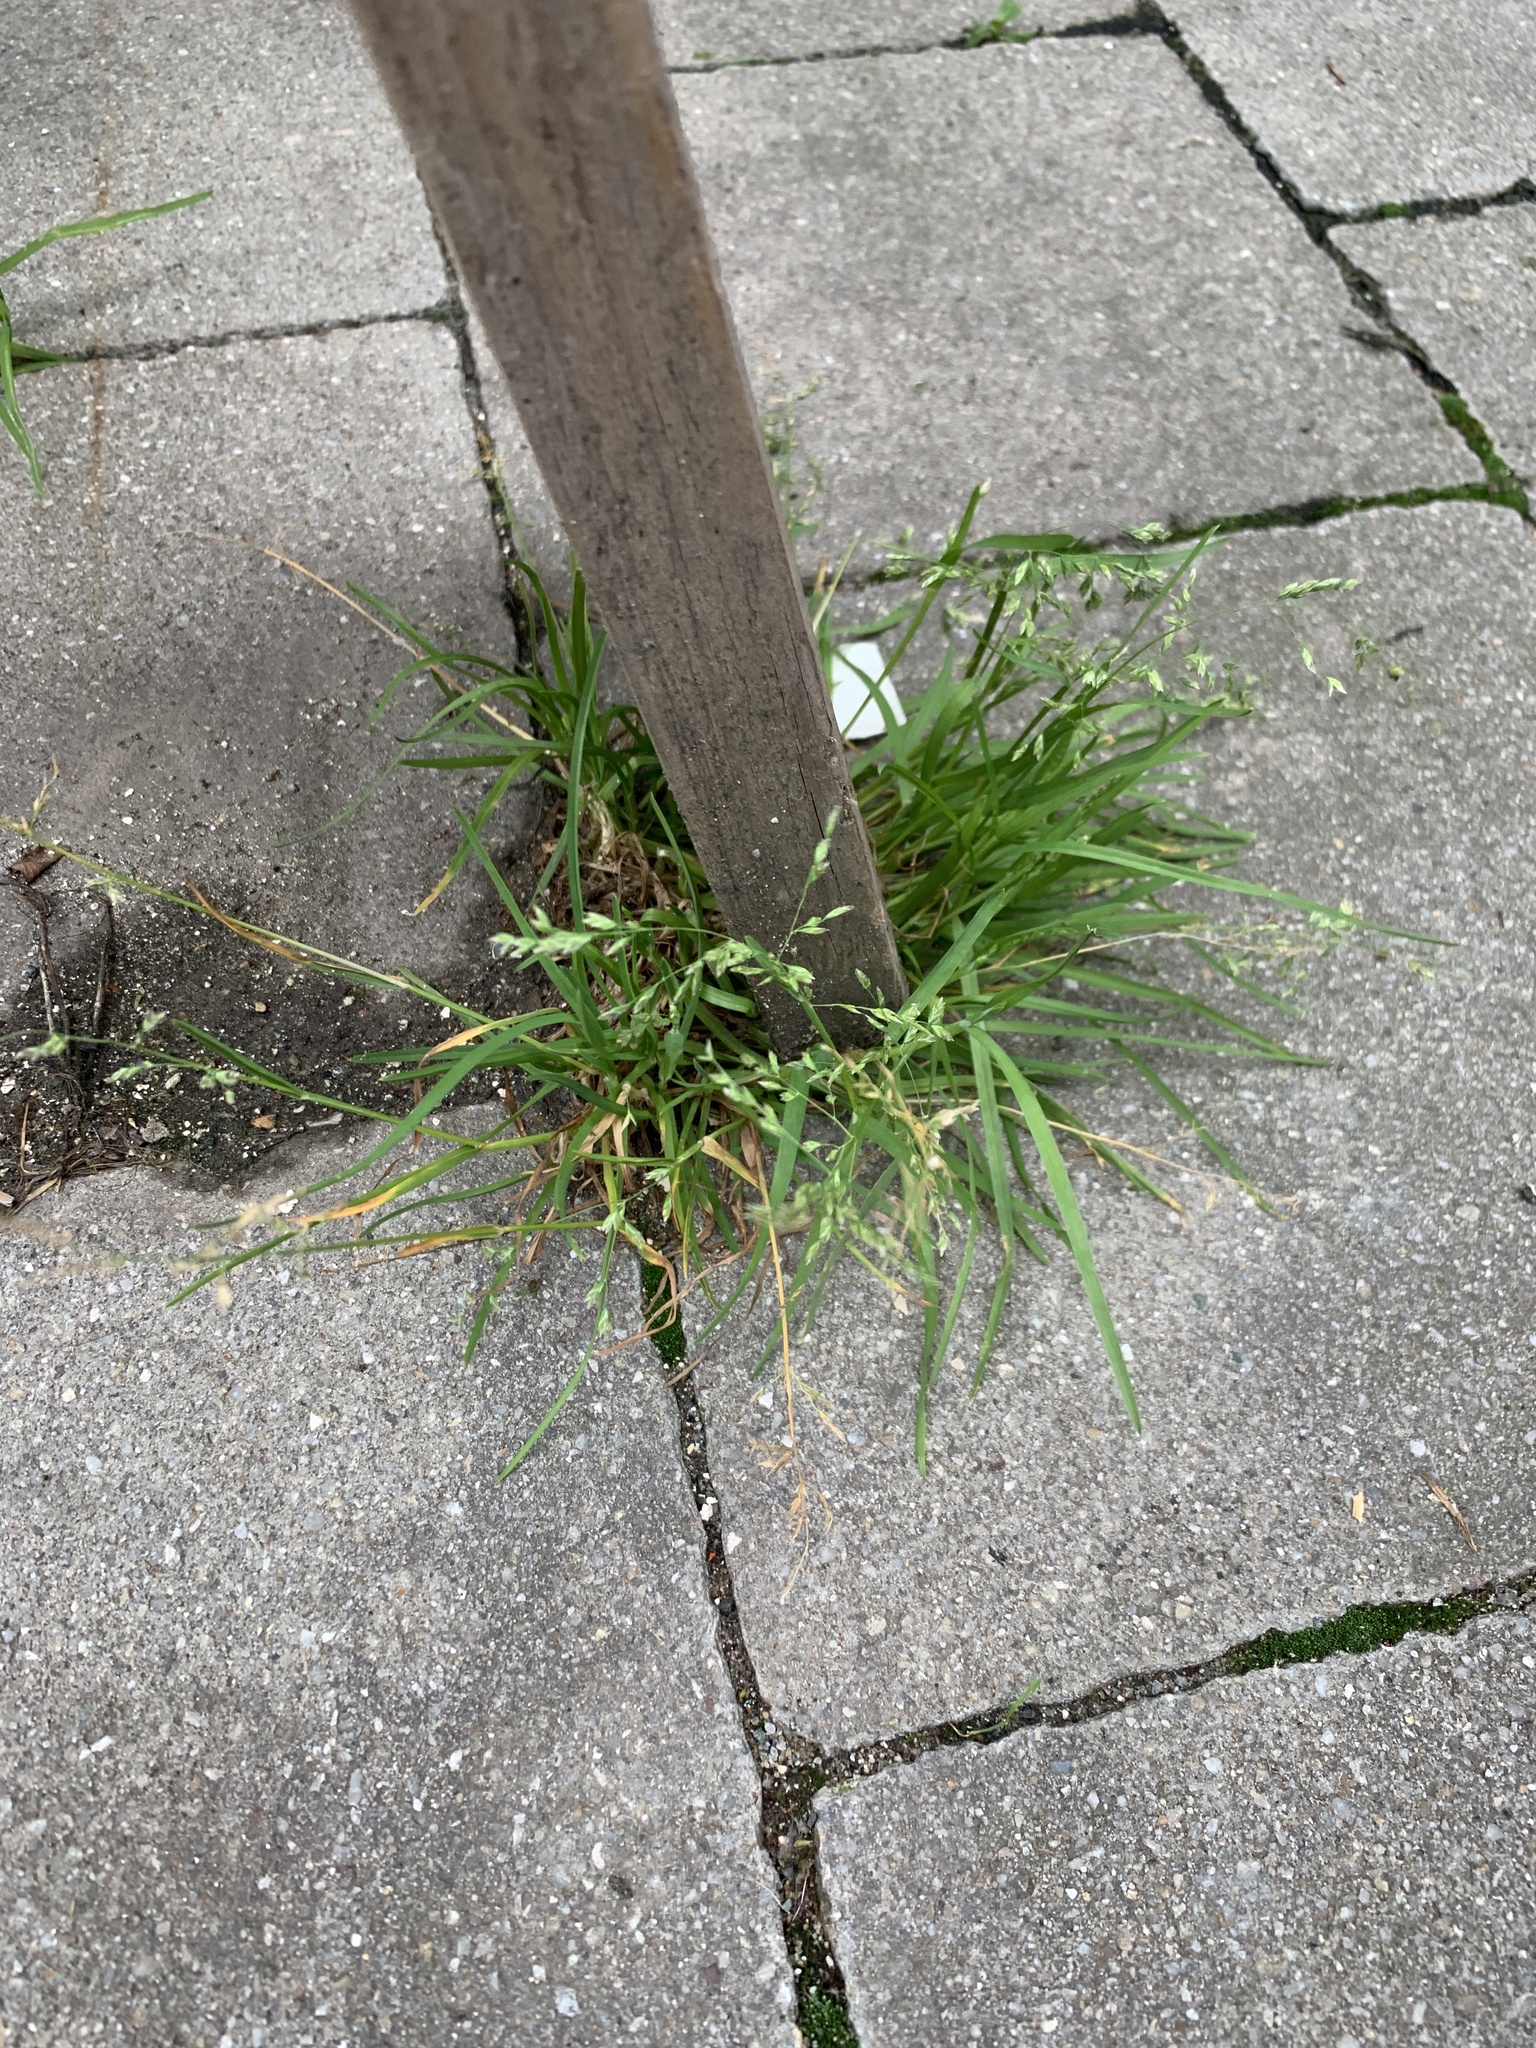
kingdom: Plantae
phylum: Tracheophyta
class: Liliopsida
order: Poales
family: Poaceae
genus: Poa
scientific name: Poa annua
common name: Annual bluegrass
